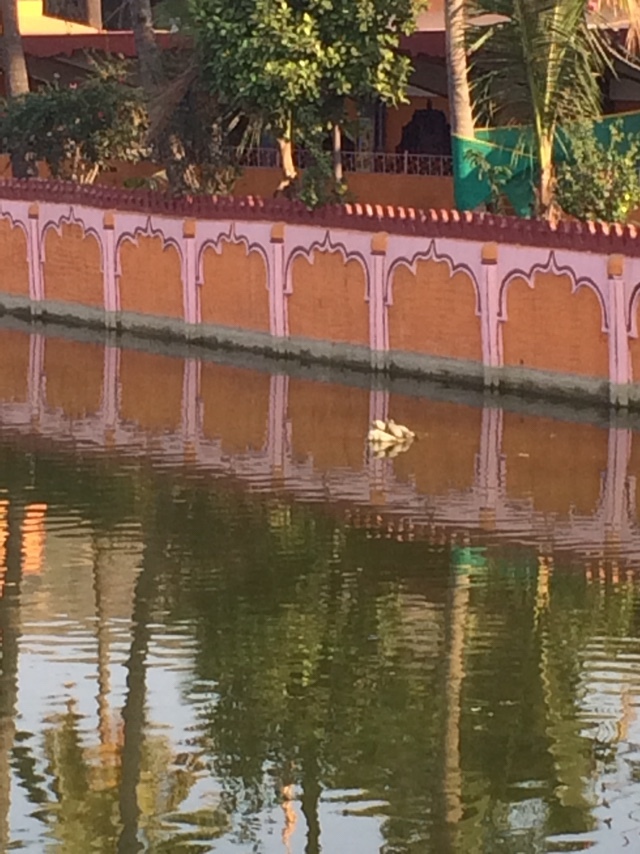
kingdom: Animalia
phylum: Chordata
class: Testudines
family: Trionychidae
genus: Lissemys
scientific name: Lissemys punctata
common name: Indian flap-shelled turtle
